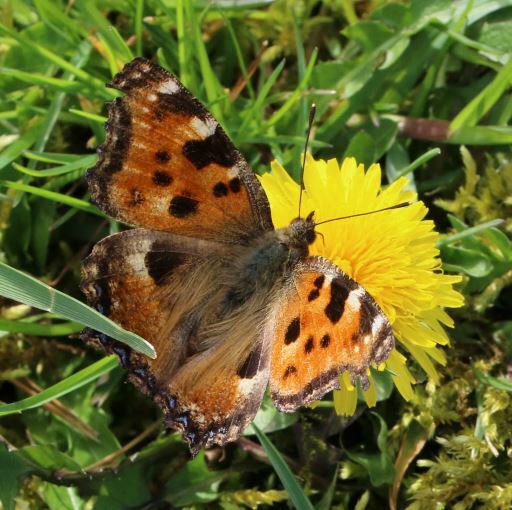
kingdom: Animalia
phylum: Arthropoda
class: Insecta
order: Lepidoptera
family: Nymphalidae
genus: Nymphalis
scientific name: Nymphalis polychloros
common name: Large tortoiseshell
